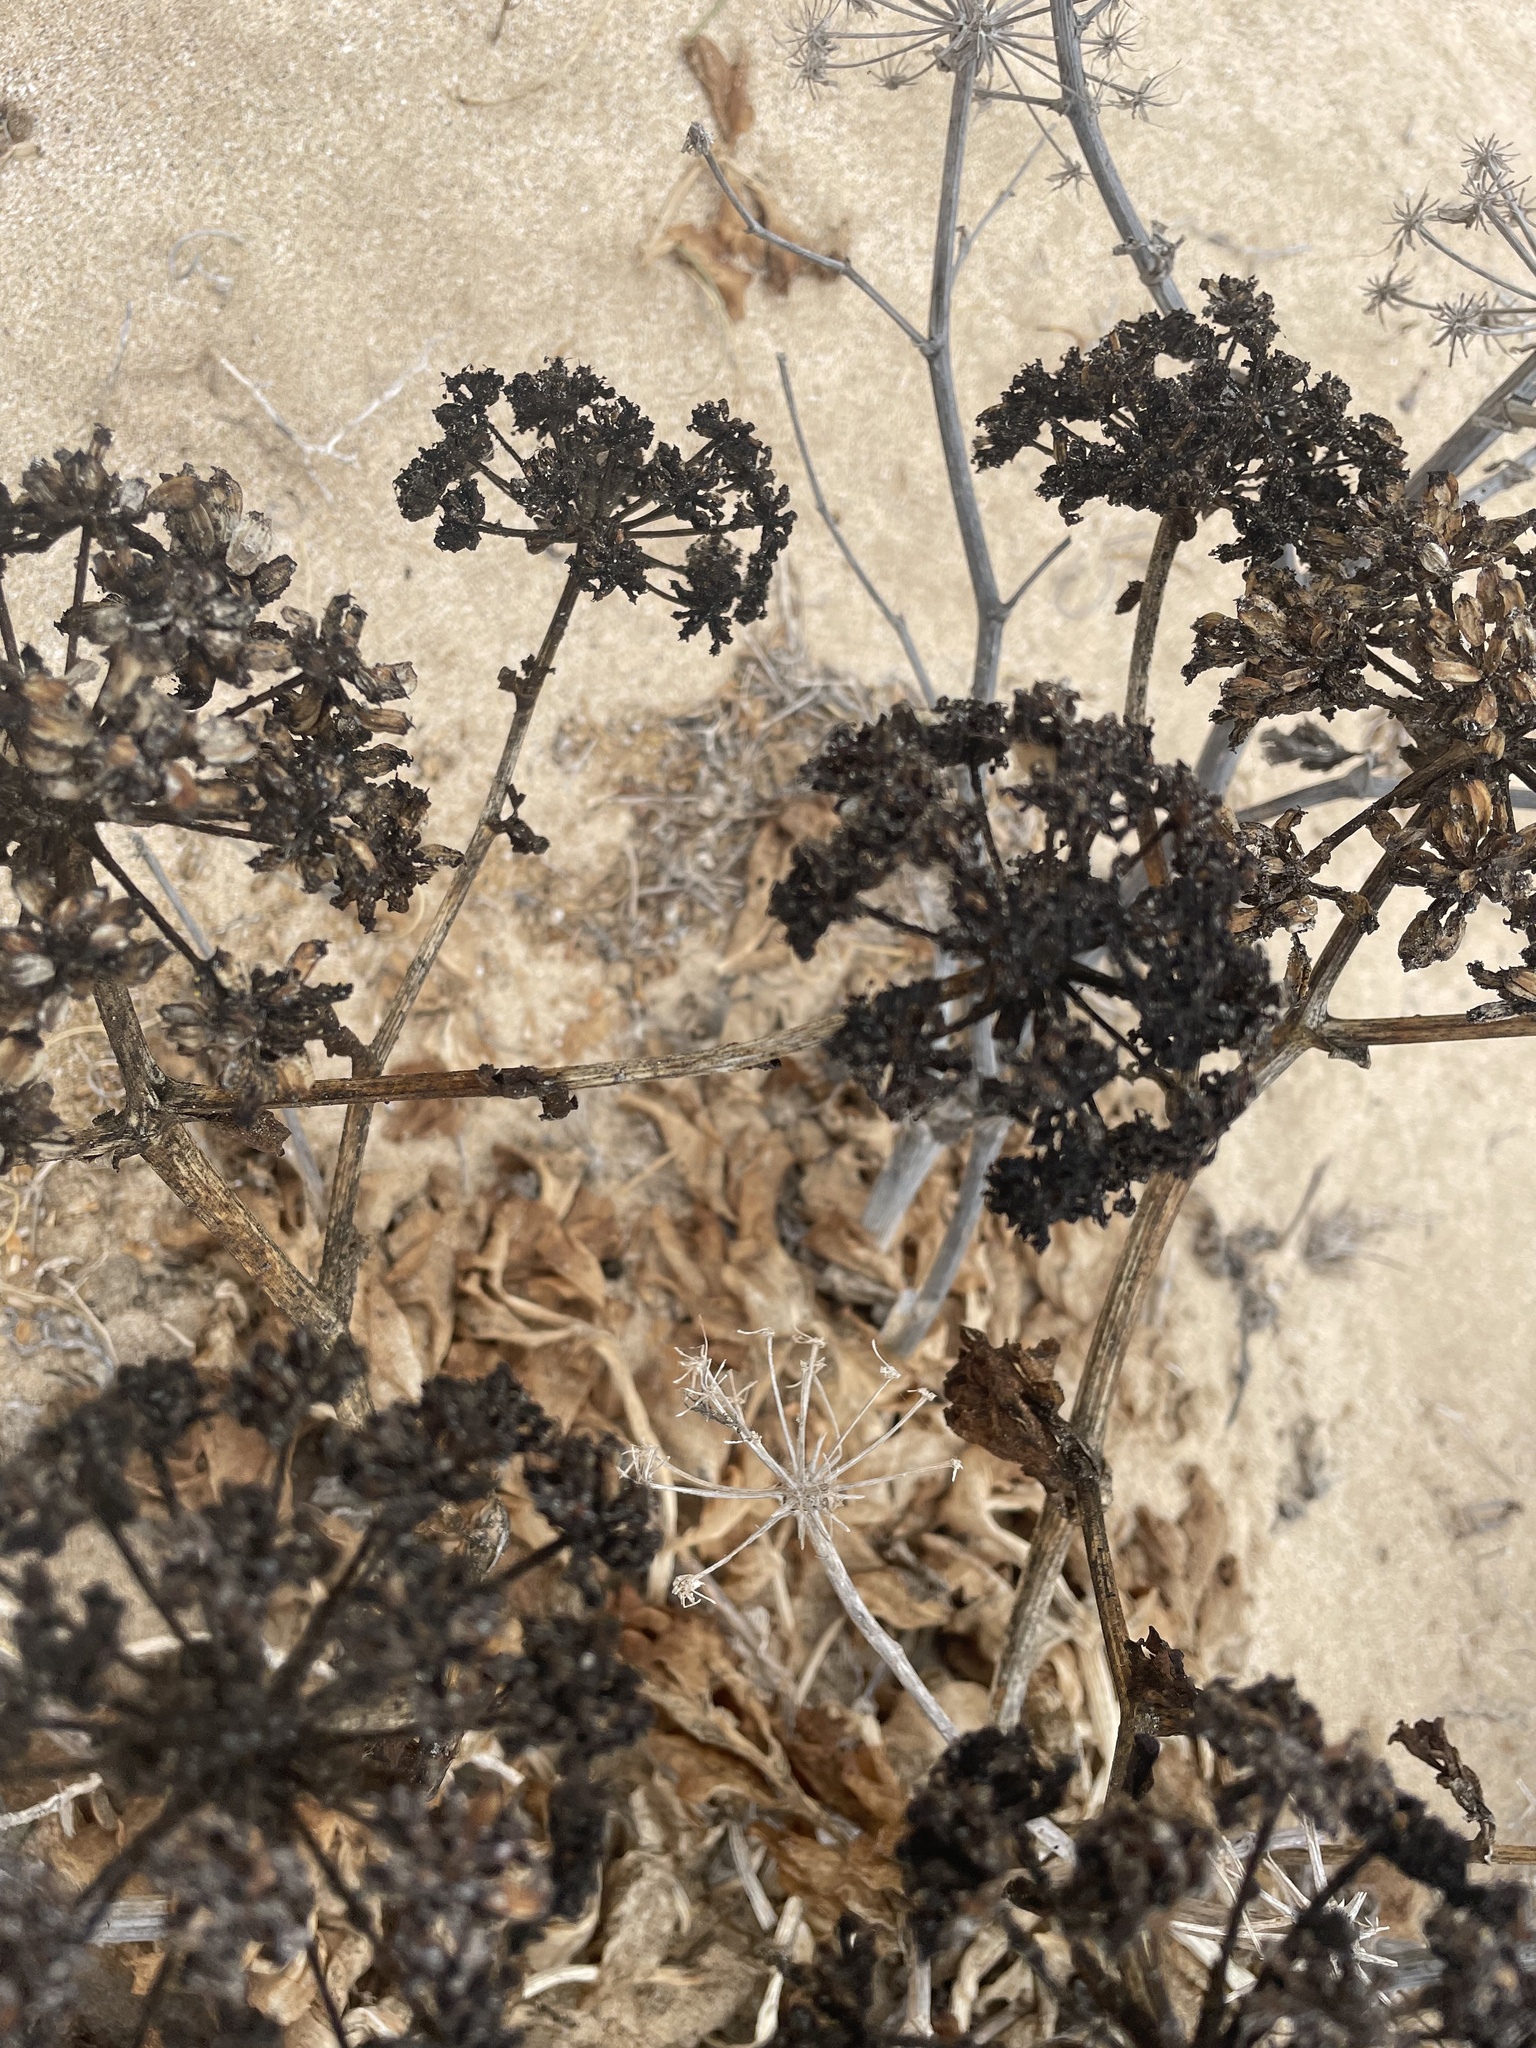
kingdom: Plantae
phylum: Tracheophyta
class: Magnoliopsida
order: Apiales
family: Apiaceae
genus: Astydamia
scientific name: Astydamia latifolia
